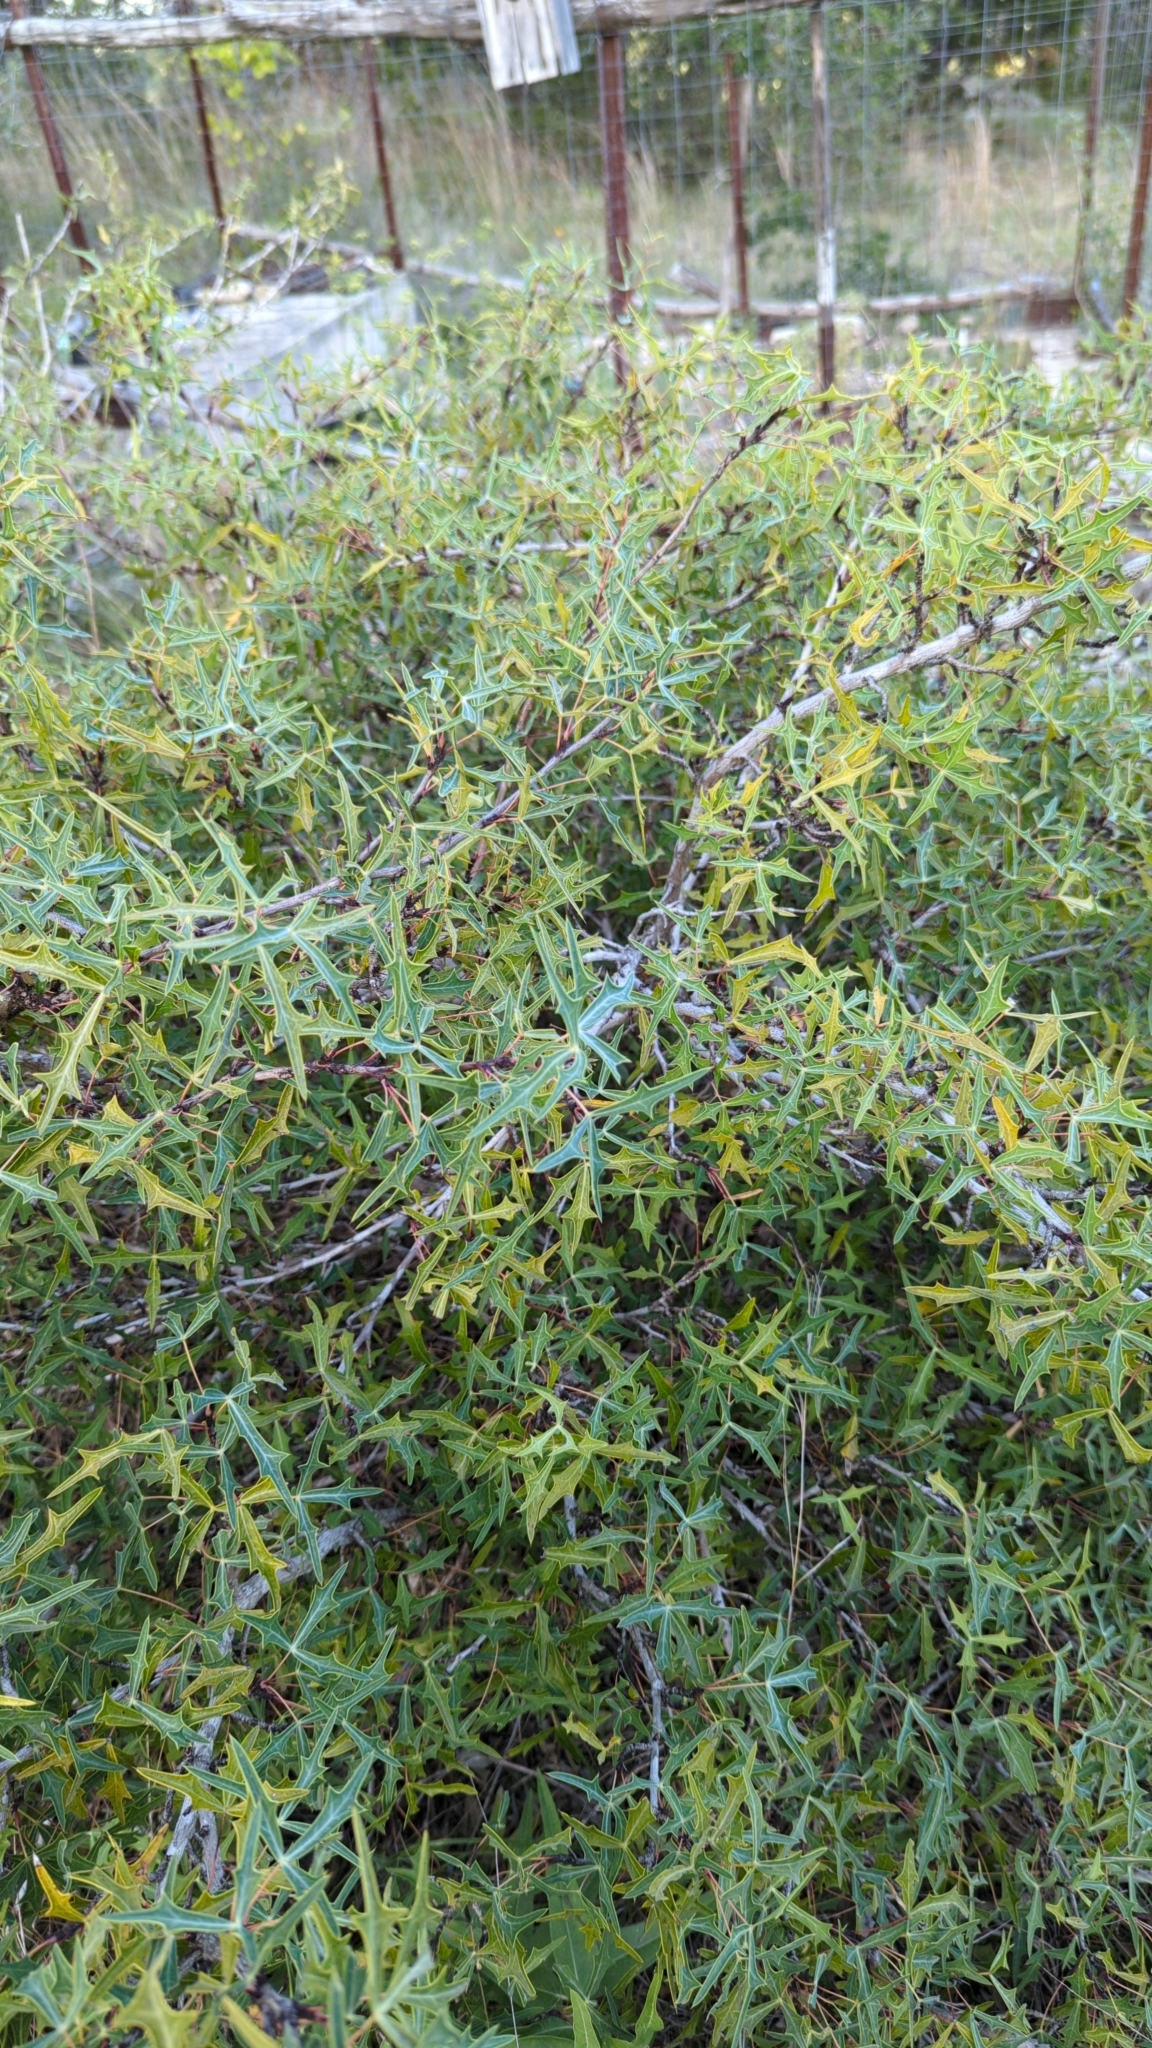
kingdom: Plantae
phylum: Tracheophyta
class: Magnoliopsida
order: Ranunculales
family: Berberidaceae
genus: Alloberberis
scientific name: Alloberberis trifoliolata
